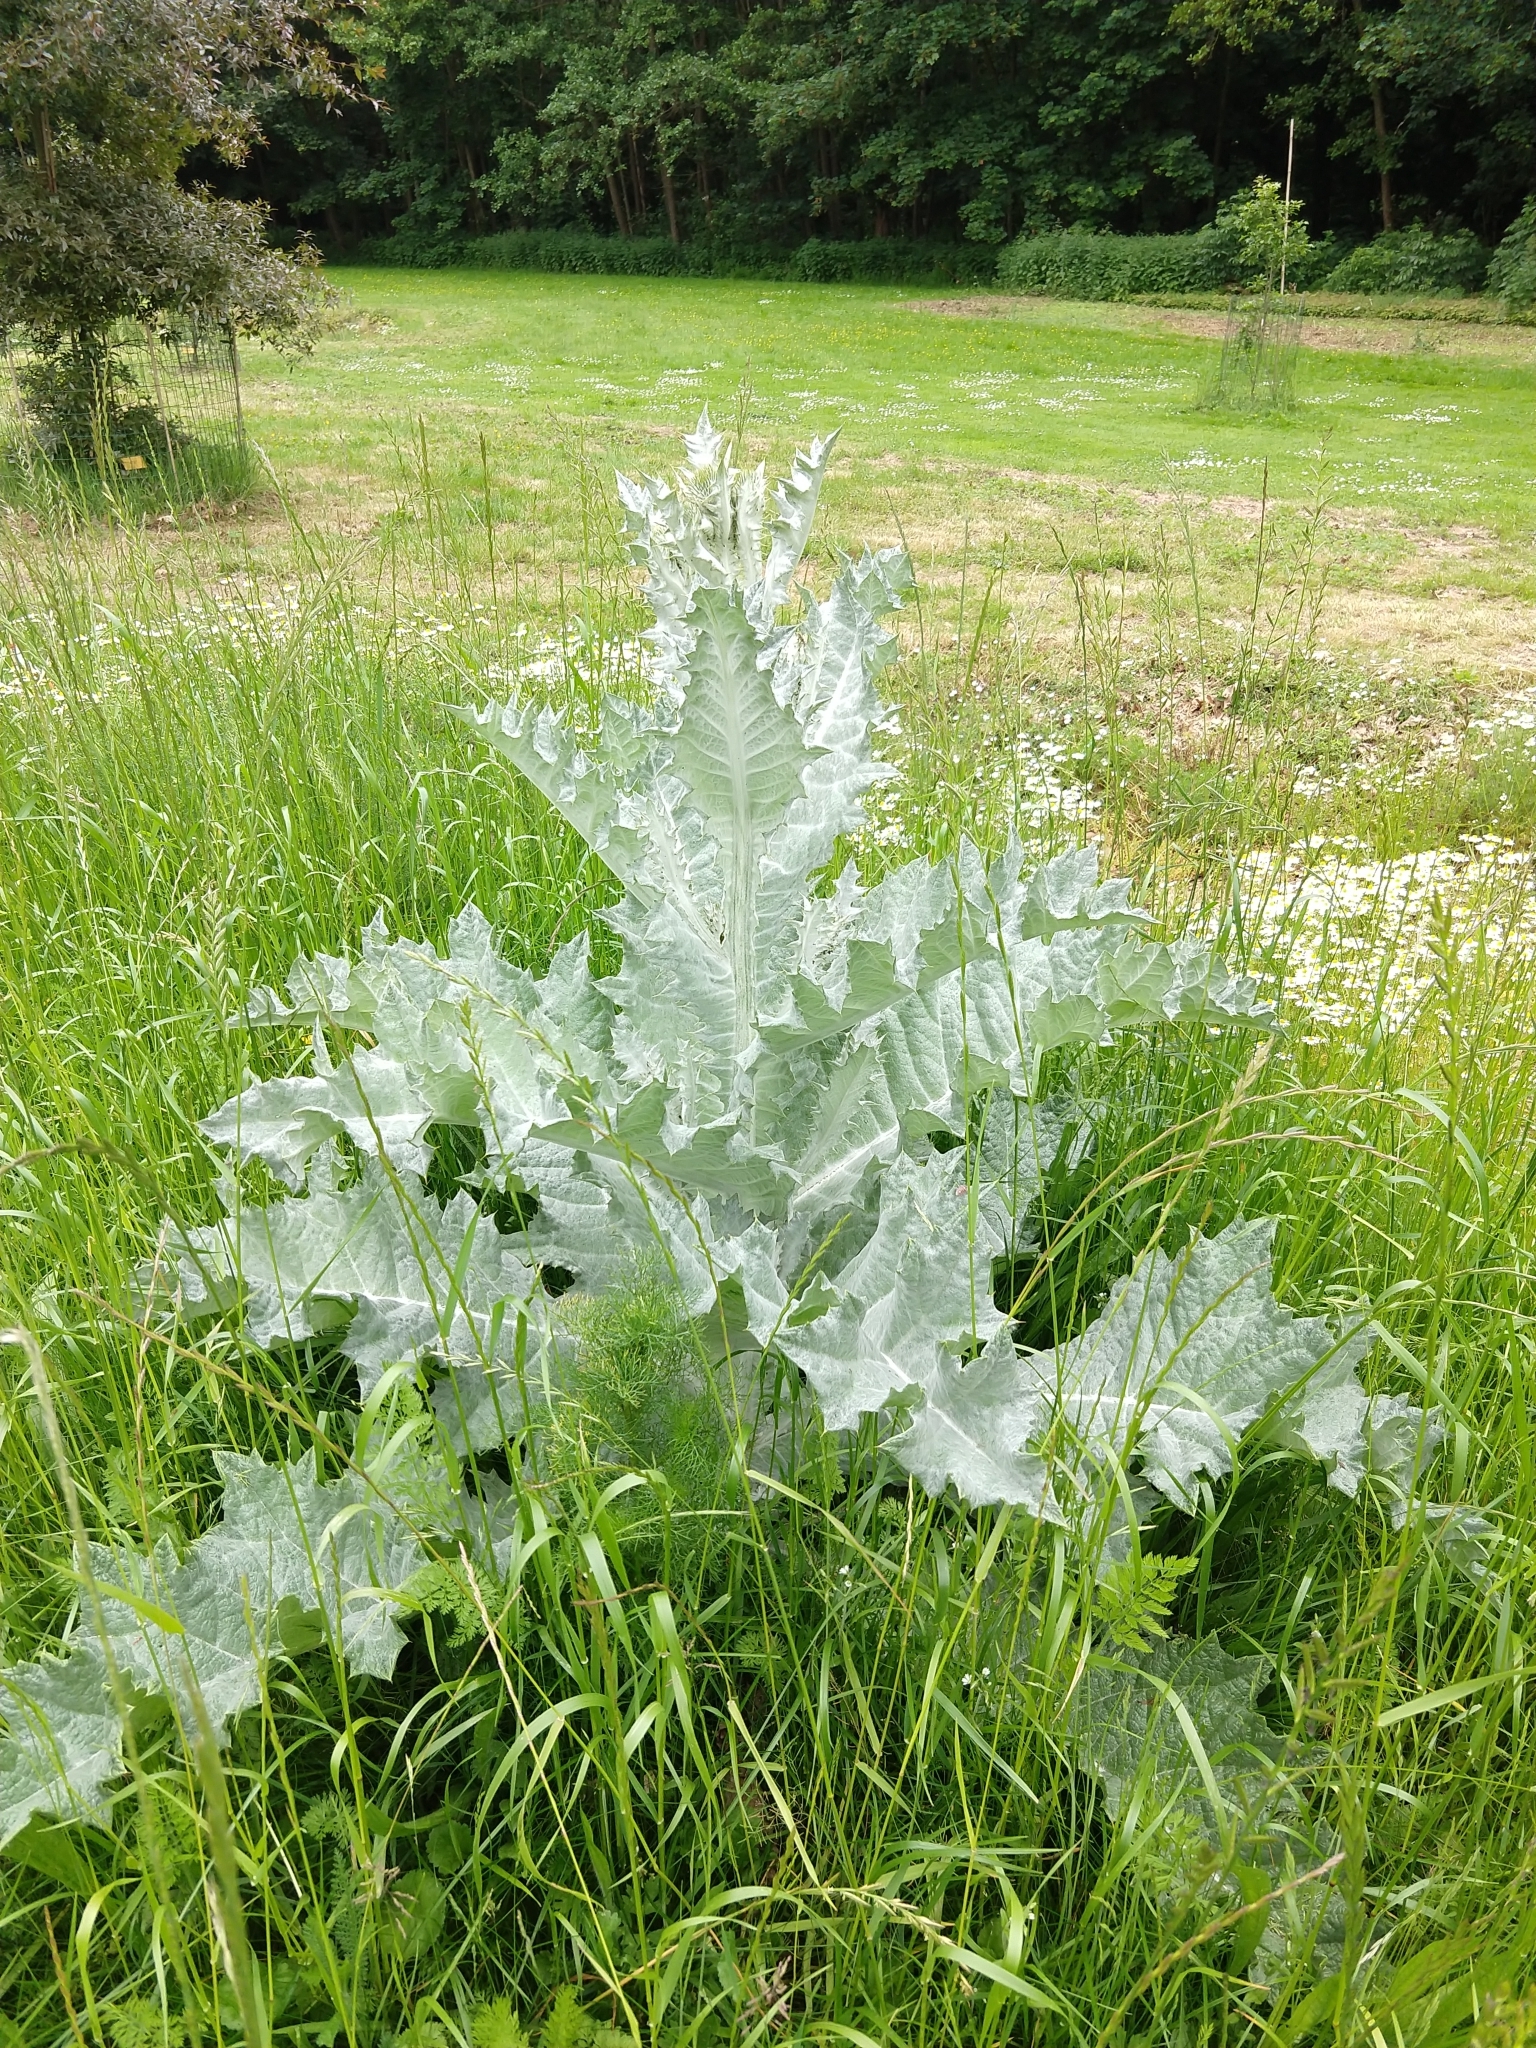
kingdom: Plantae
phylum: Tracheophyta
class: Magnoliopsida
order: Asterales
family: Asteraceae
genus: Onopordum
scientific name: Onopordum acanthium
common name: Scotch thistle
